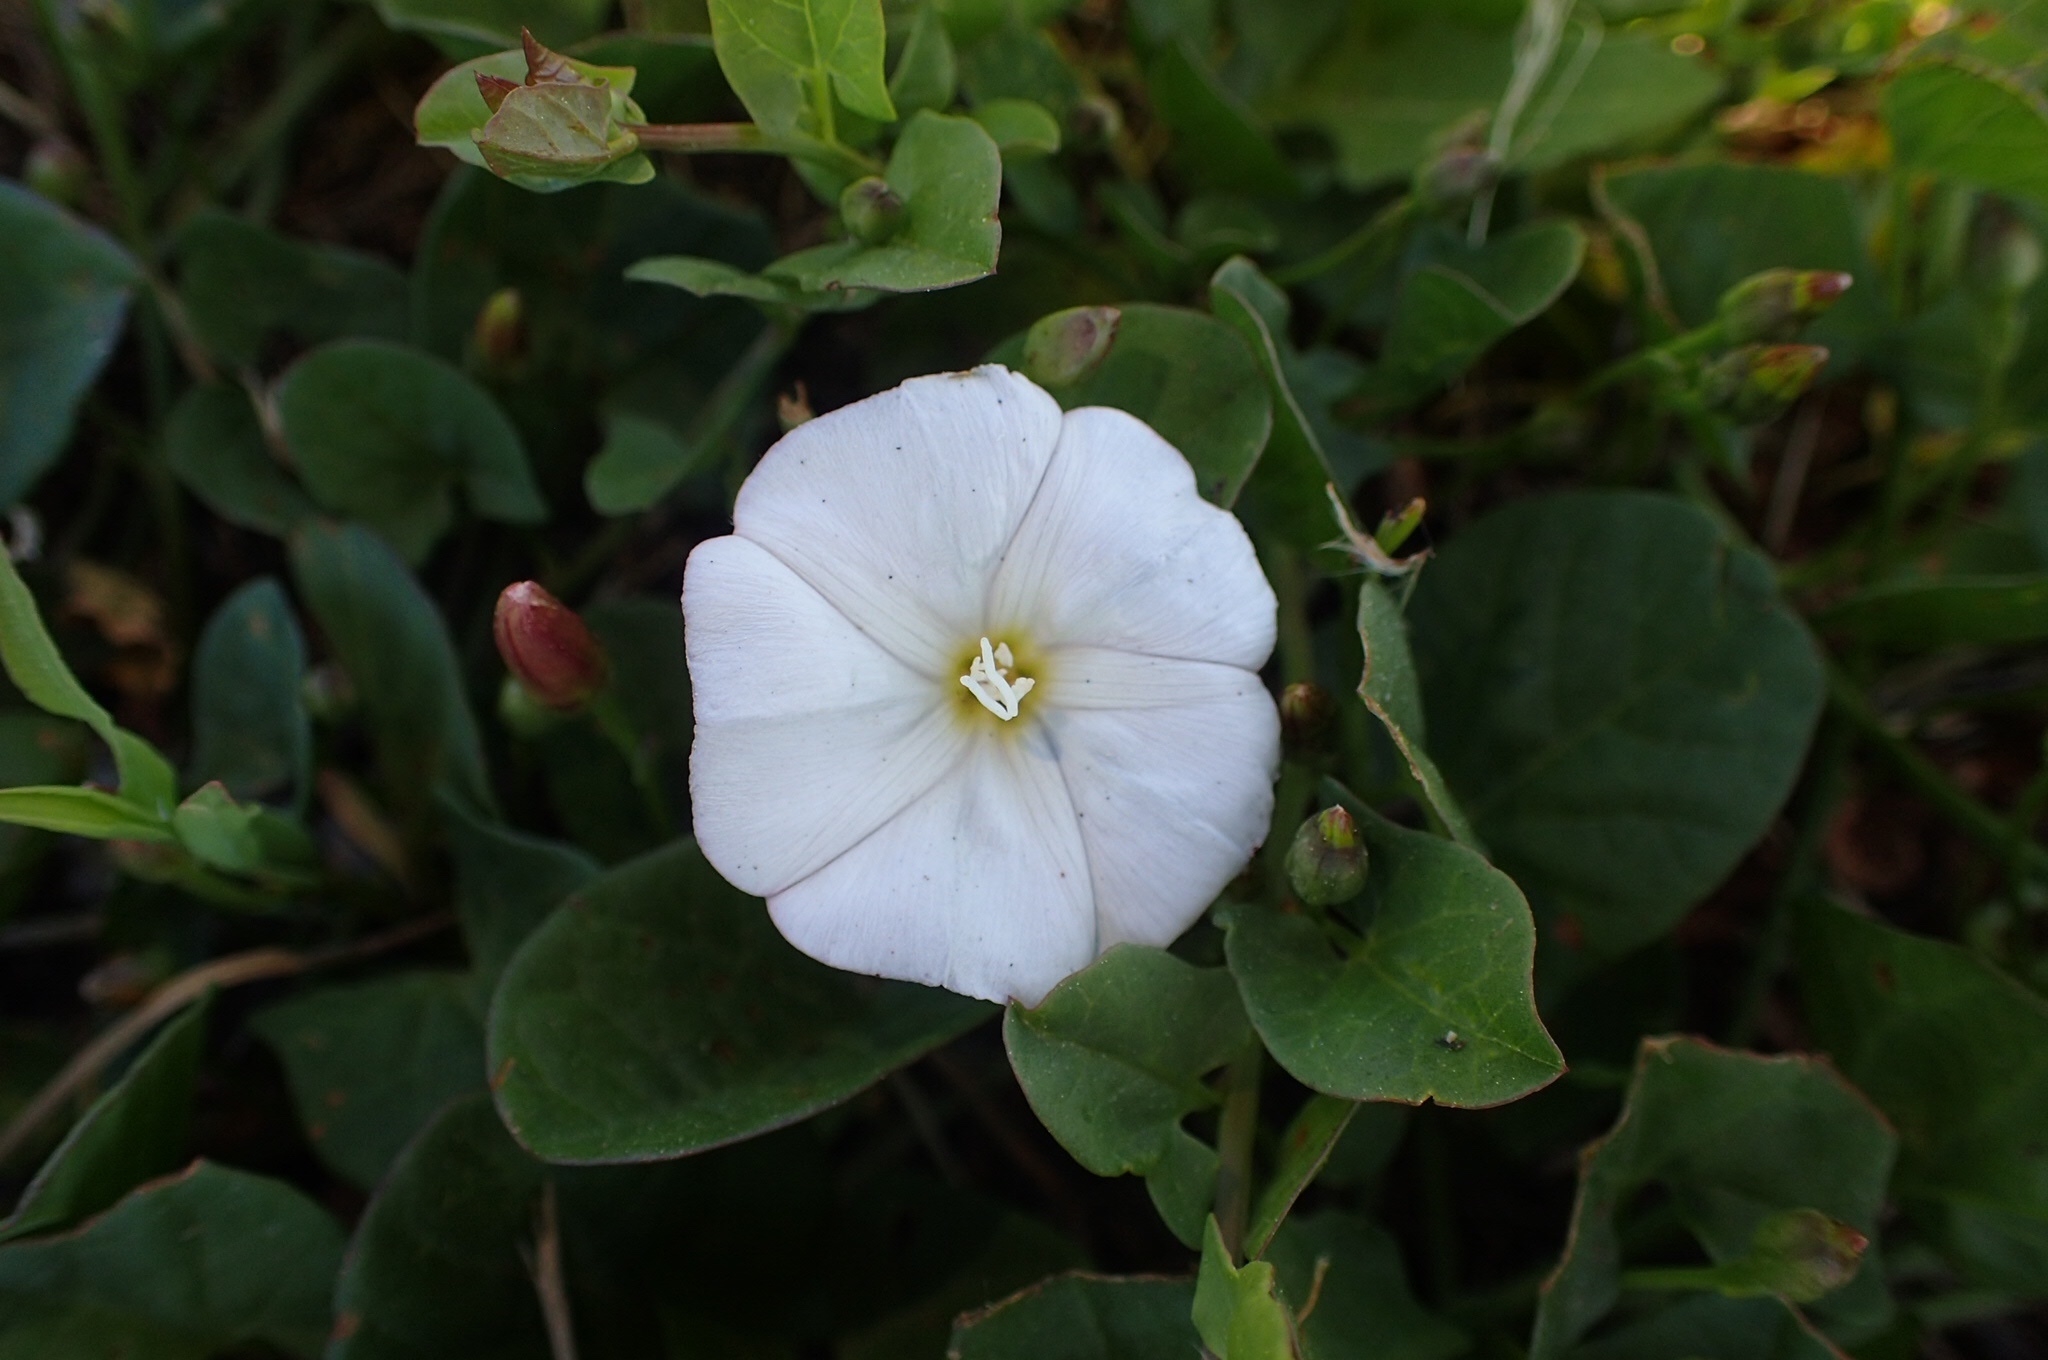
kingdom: Plantae
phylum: Tracheophyta
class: Magnoliopsida
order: Solanales
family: Convolvulaceae
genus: Convolvulus
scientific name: Convolvulus arvensis
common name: Field bindweed
